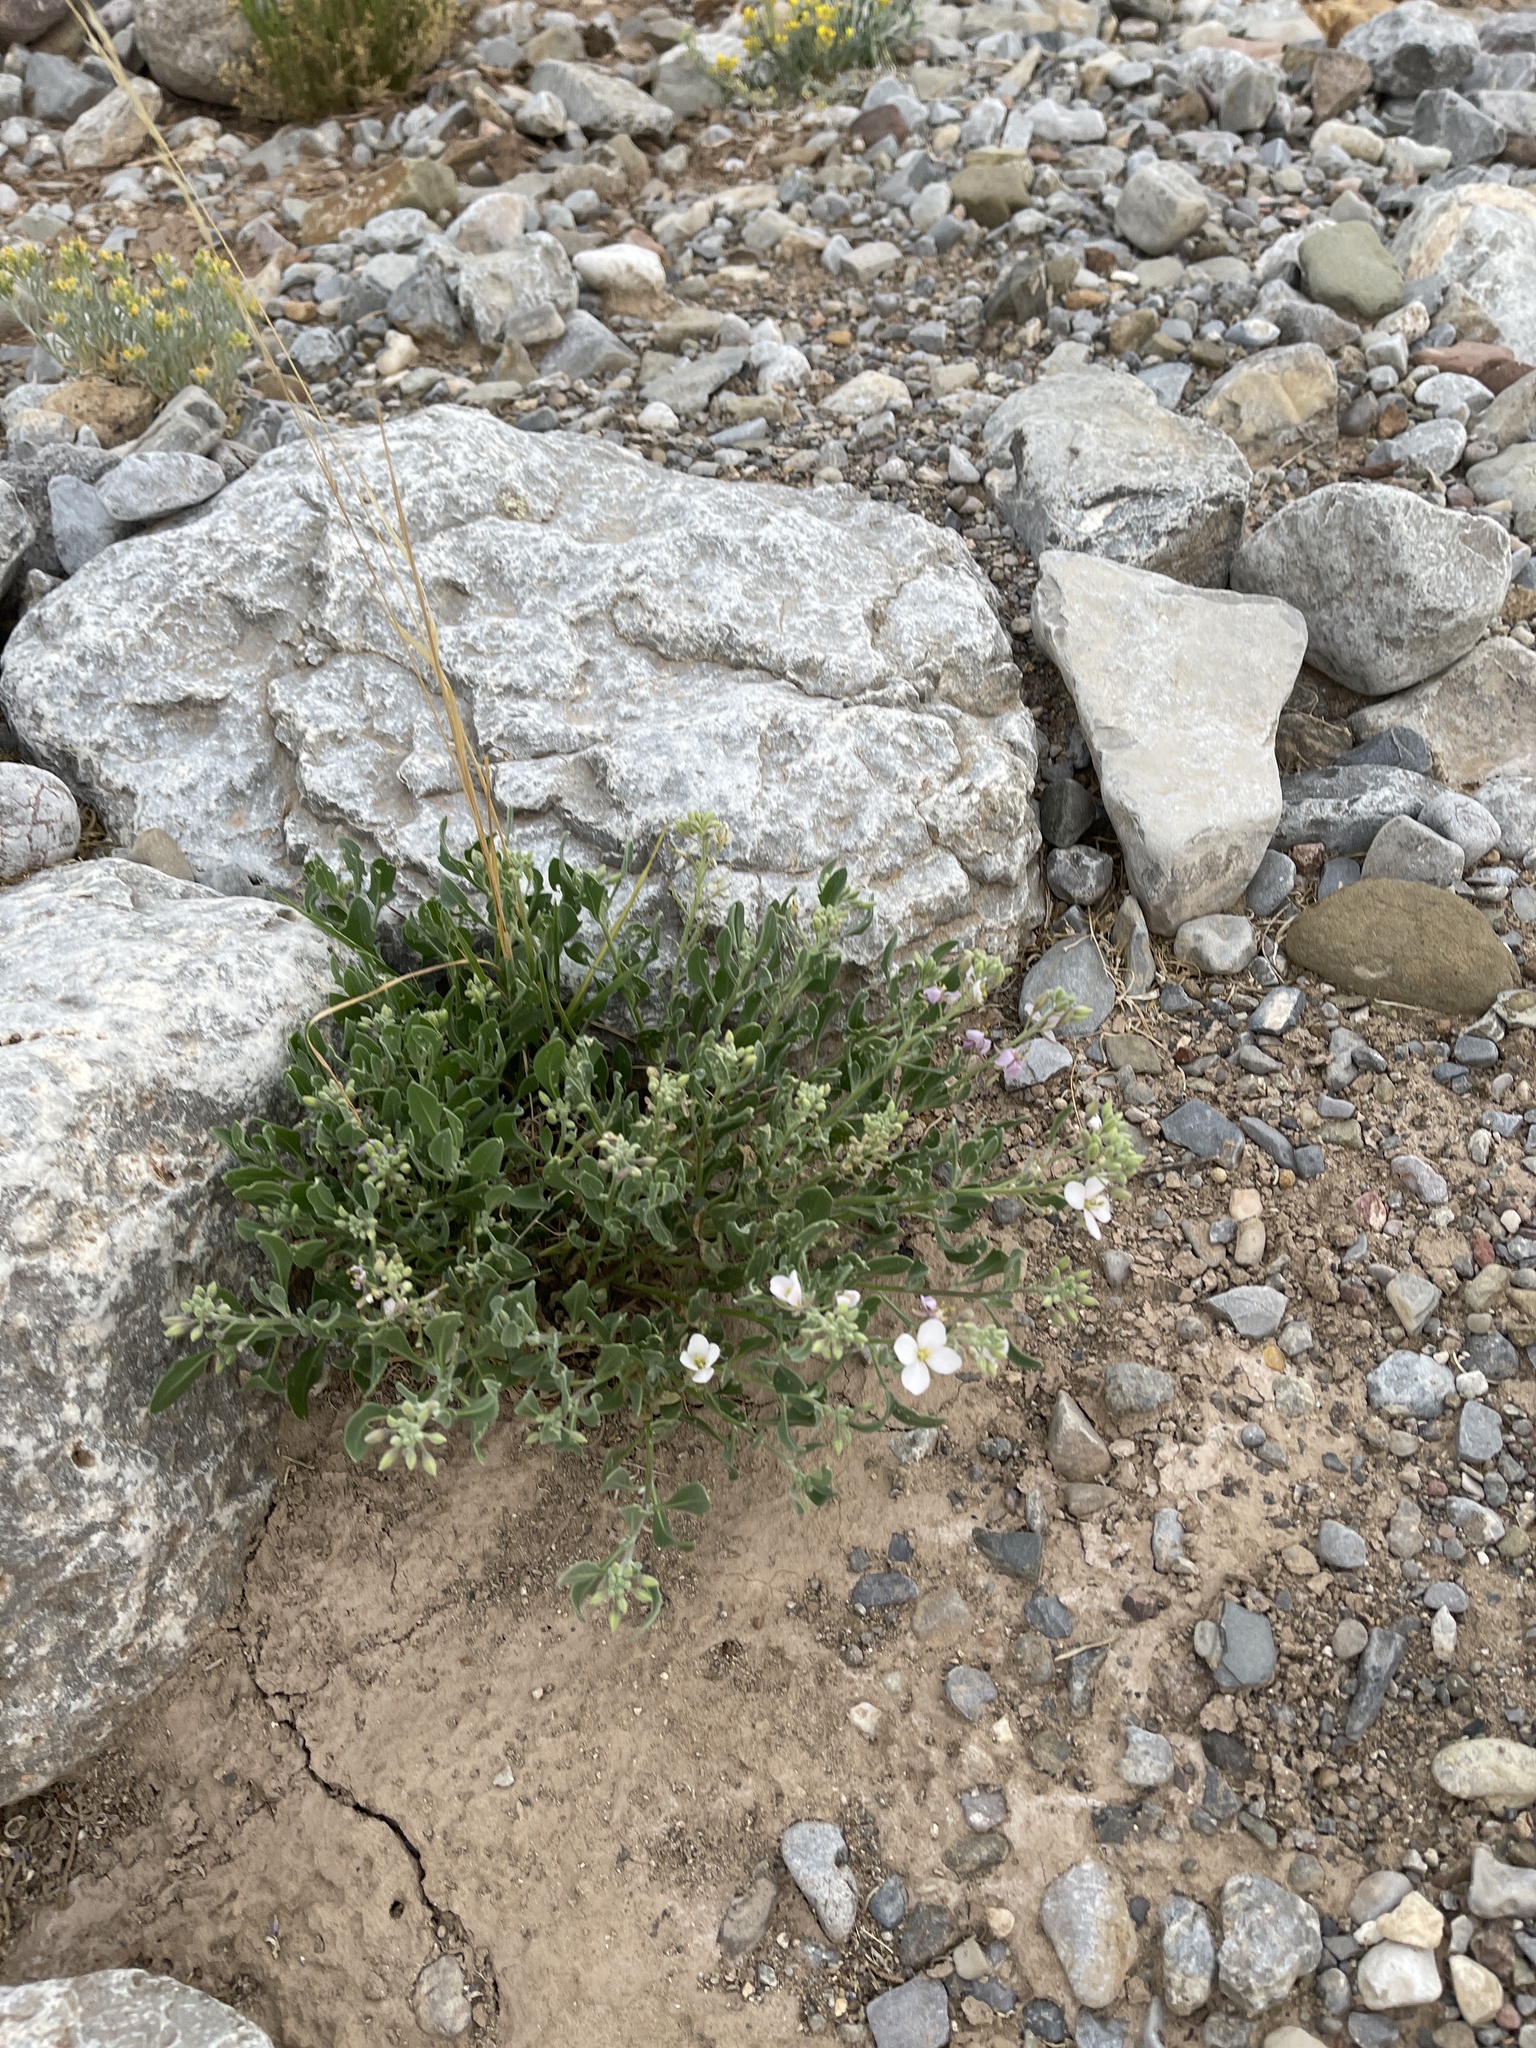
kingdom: Plantae
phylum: Tracheophyta
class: Magnoliopsida
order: Brassicales
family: Brassicaceae
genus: Nerisyrenia
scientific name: Nerisyrenia camporum
